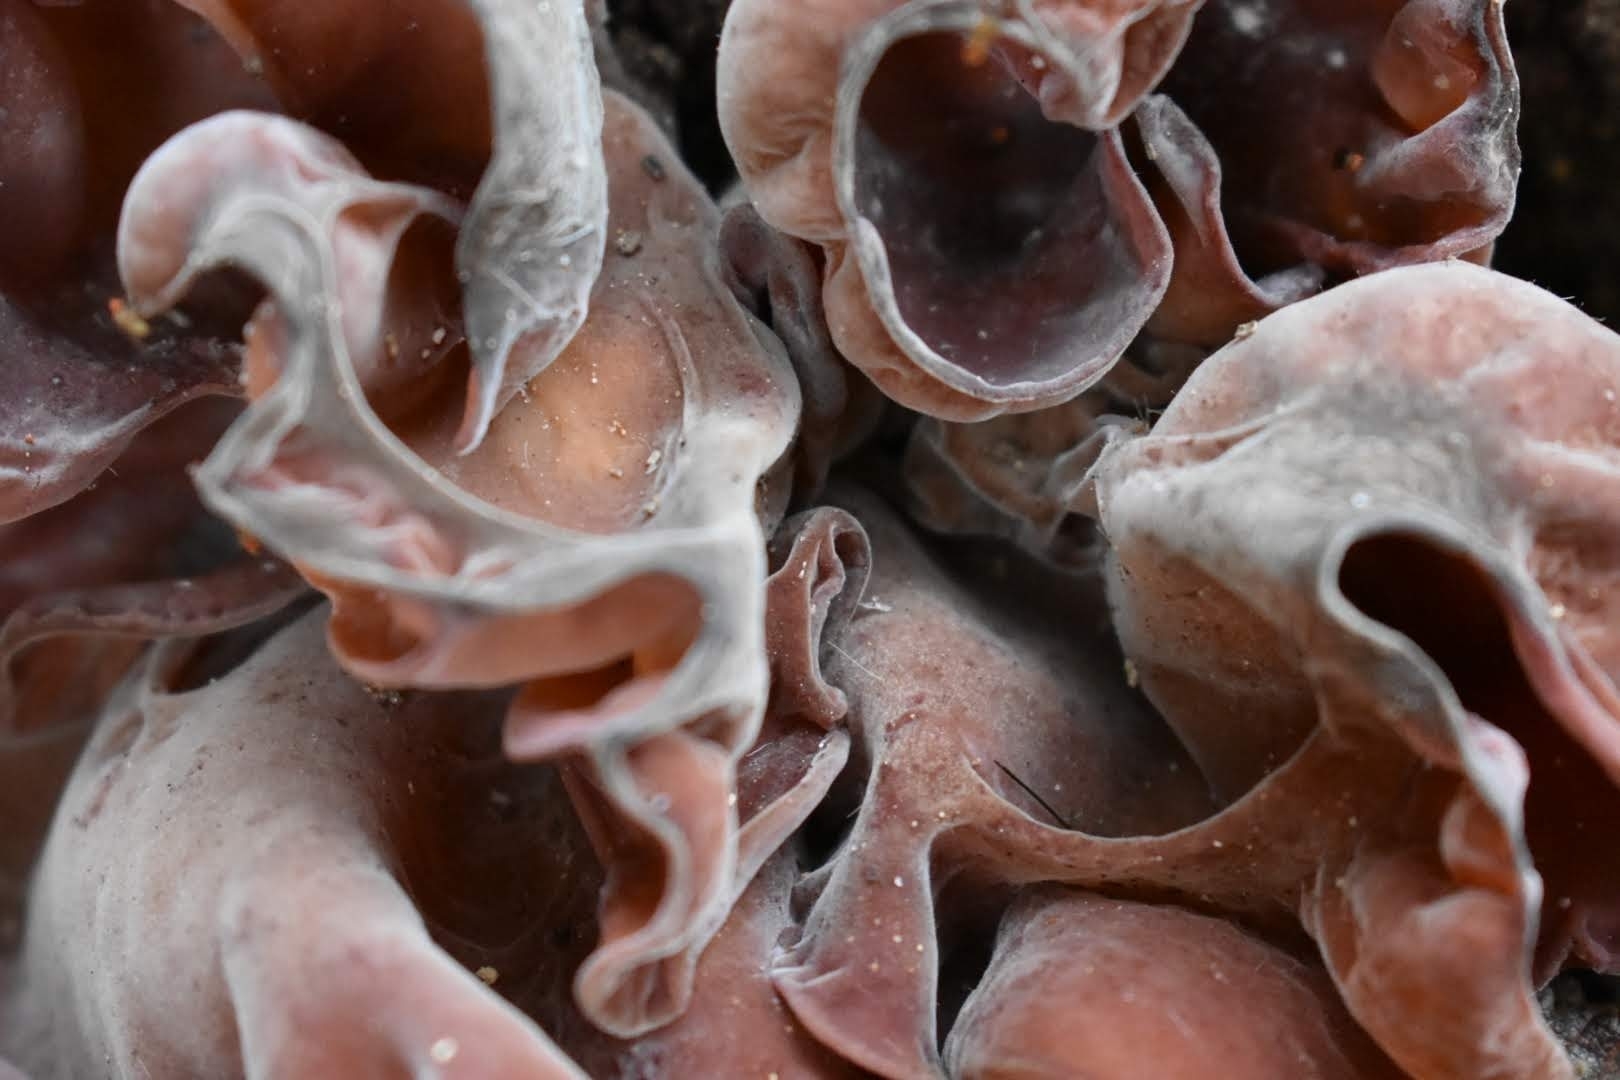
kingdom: Fungi
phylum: Basidiomycota
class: Agaricomycetes
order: Auriculariales
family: Auriculariaceae
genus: Auricularia
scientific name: Auricularia fuscosuccinea
